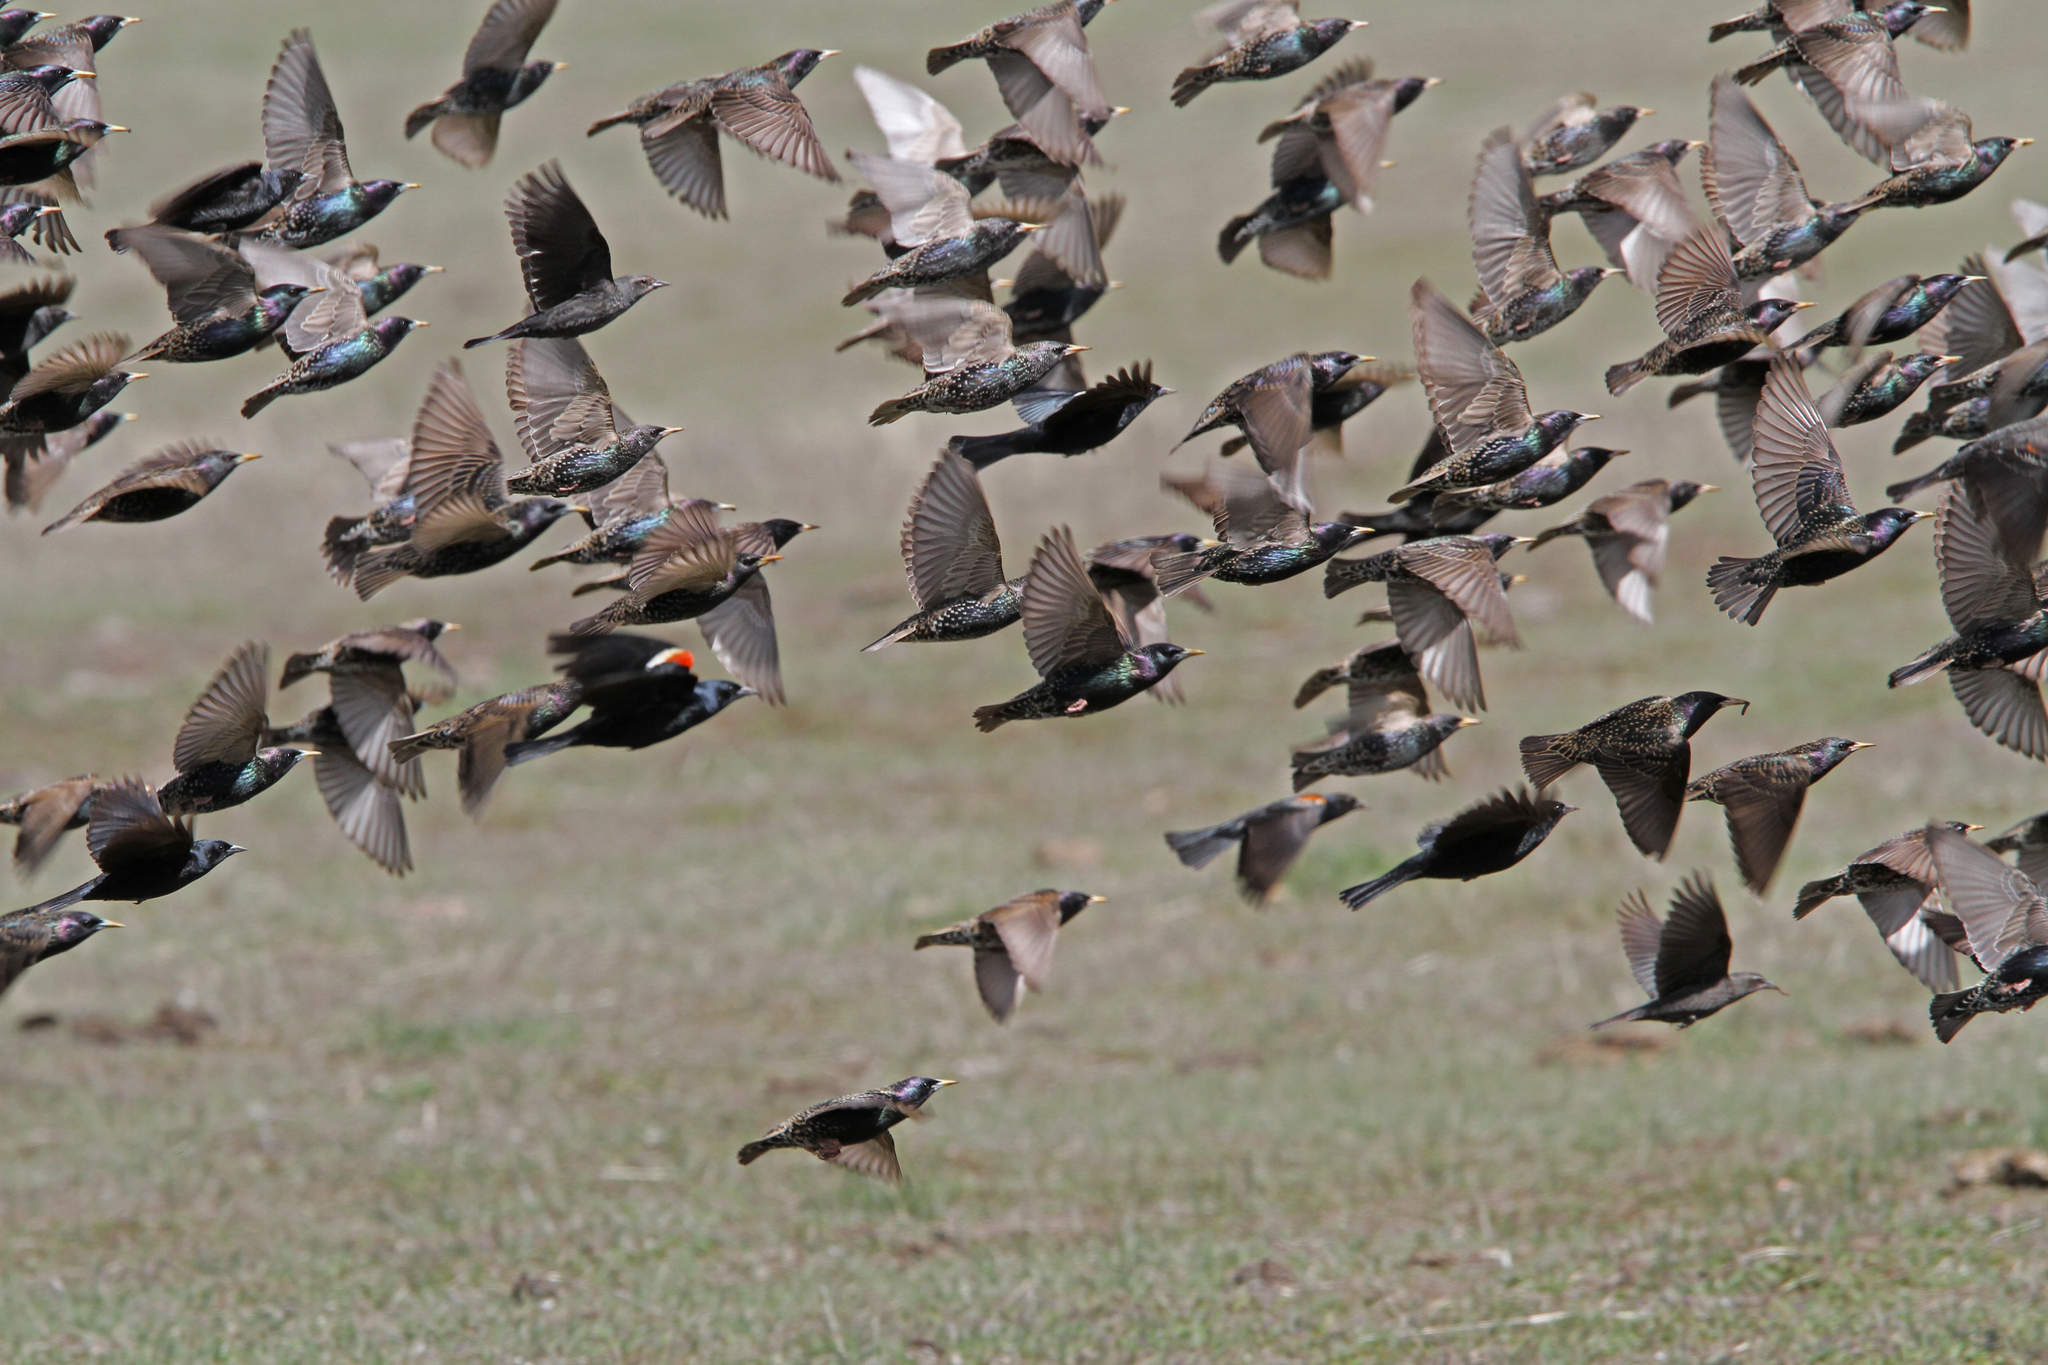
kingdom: Animalia
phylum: Chordata
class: Aves
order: Passeriformes
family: Sturnidae
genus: Sturnus
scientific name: Sturnus vulgaris
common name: Common starling
